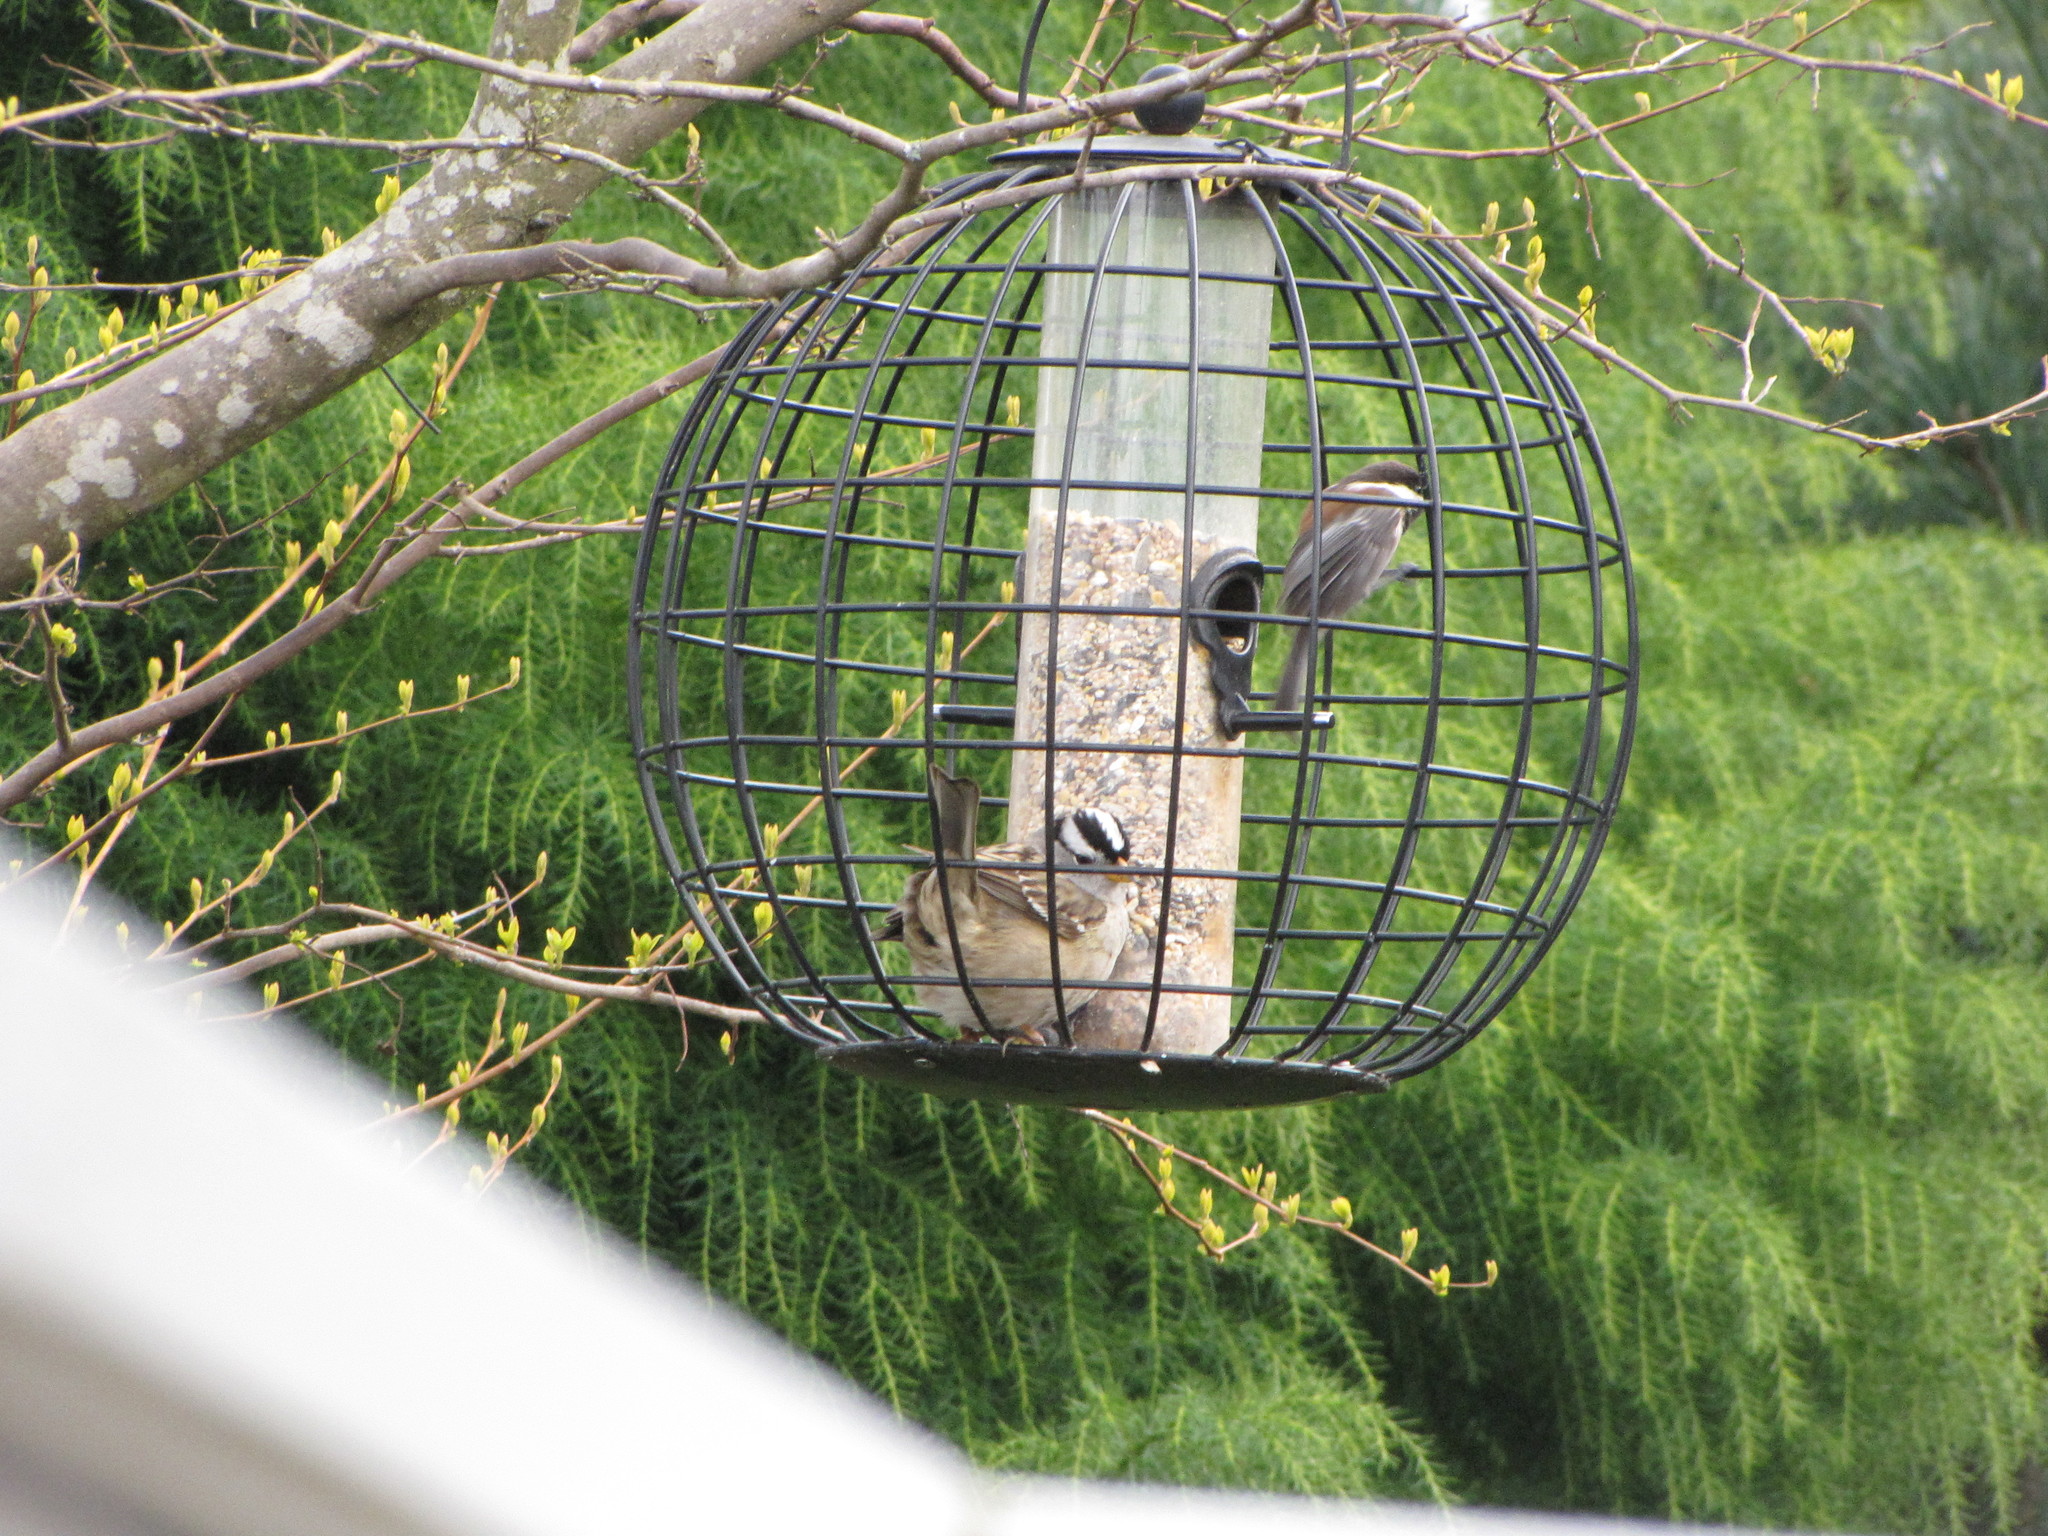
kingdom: Animalia
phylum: Chordata
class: Aves
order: Passeriformes
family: Paridae
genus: Poecile
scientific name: Poecile rufescens
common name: Chestnut-backed chickadee
